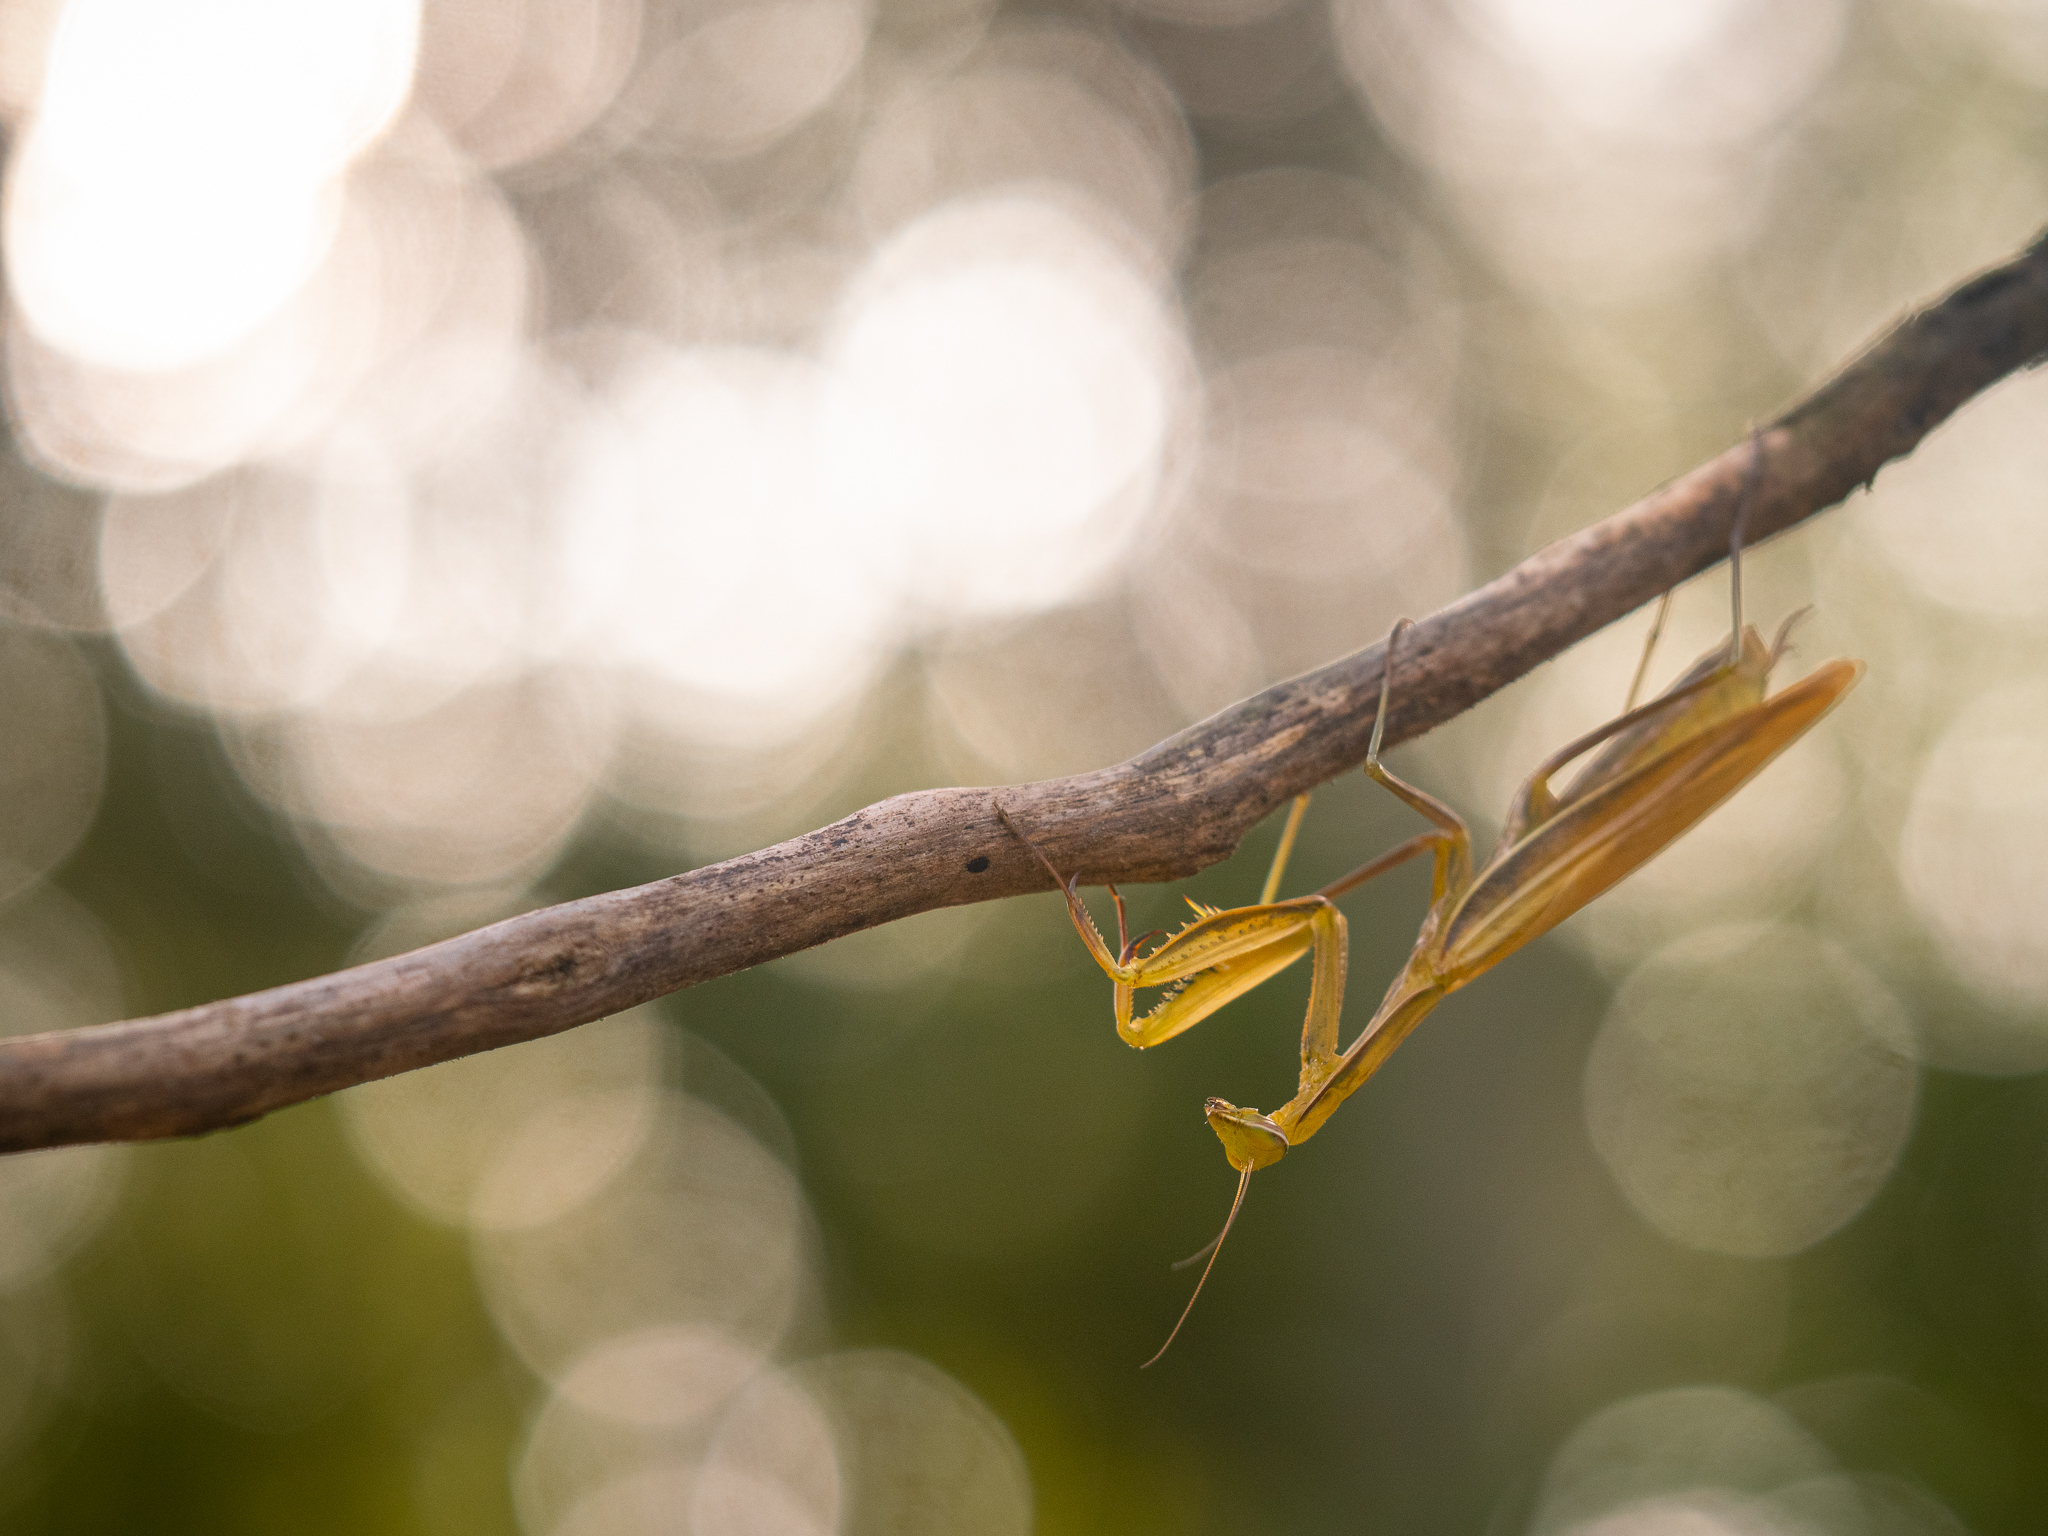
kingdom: Animalia
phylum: Arthropoda
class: Insecta
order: Mantodea
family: Mantidae
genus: Mantis
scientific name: Mantis religiosa
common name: Praying mantis
